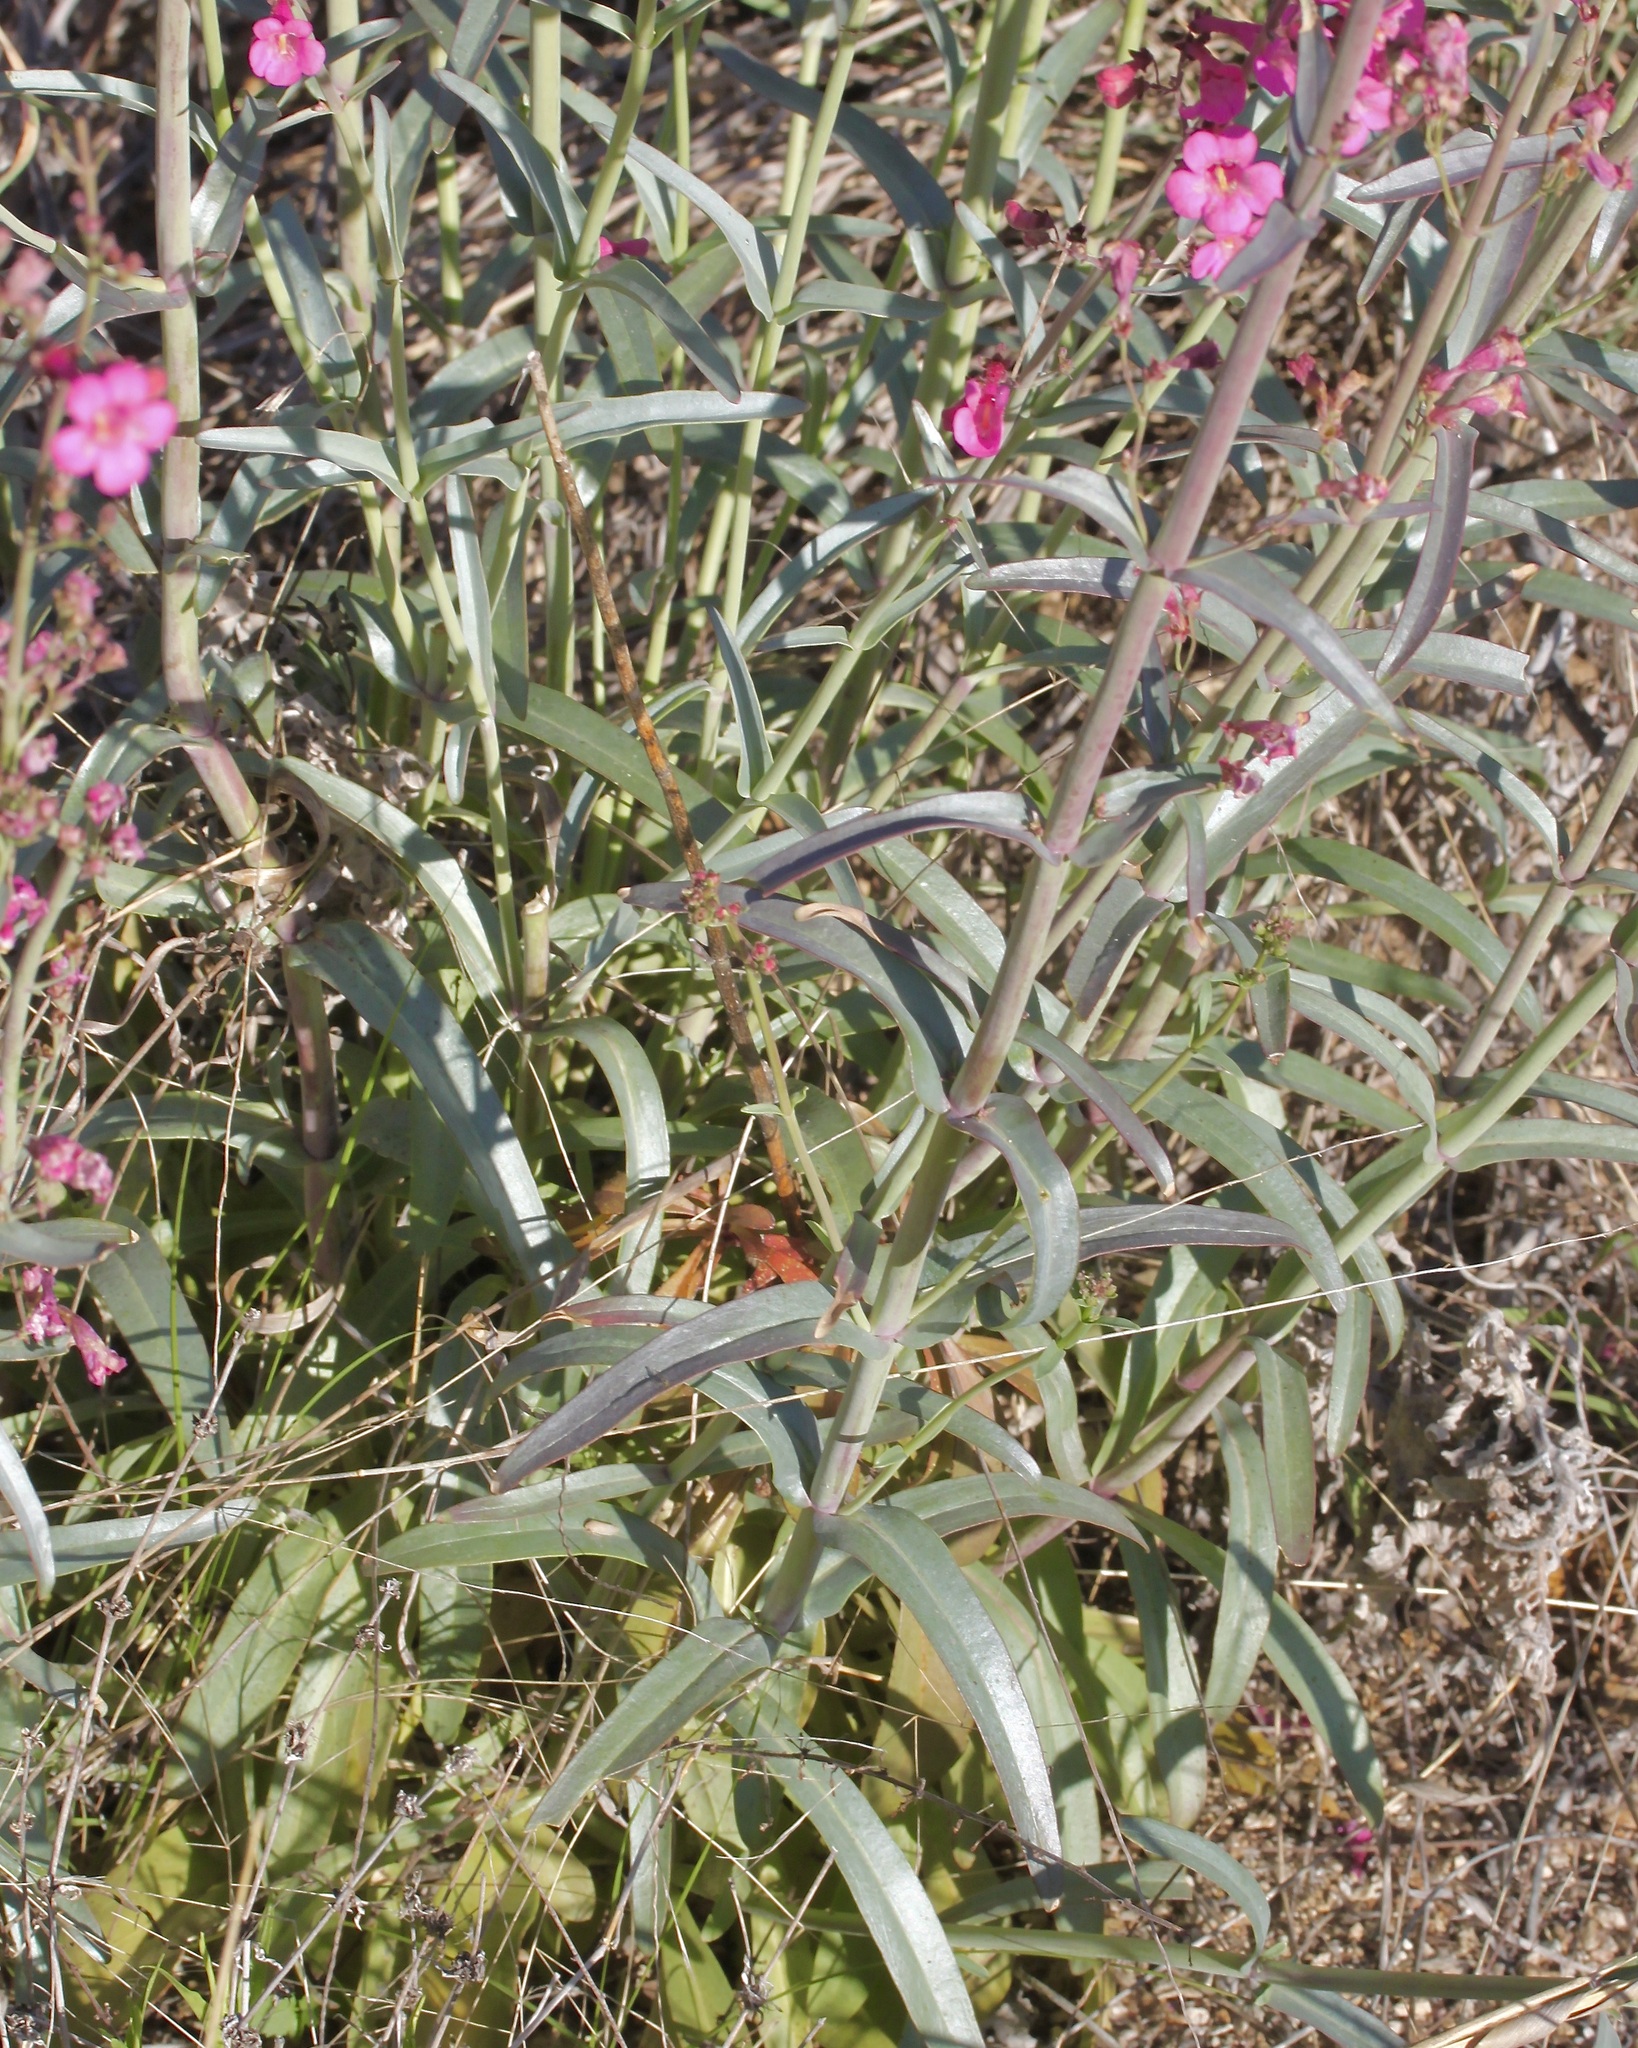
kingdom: Plantae
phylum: Tracheophyta
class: Magnoliopsida
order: Lamiales
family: Plantaginaceae
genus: Penstemon
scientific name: Penstemon parryi
